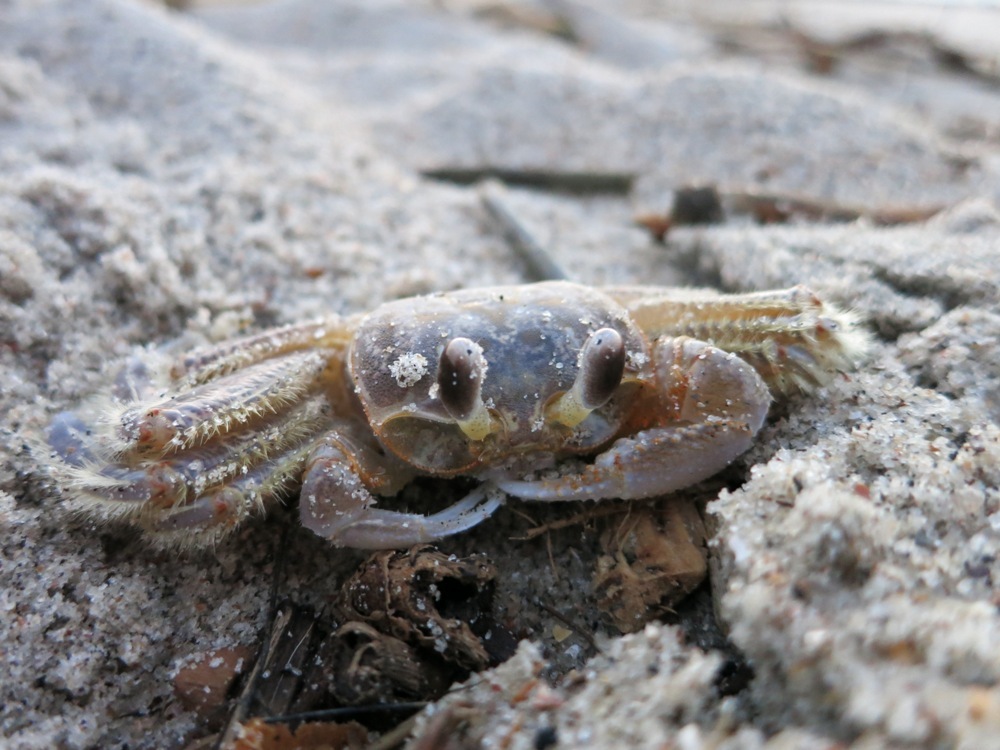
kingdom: Animalia
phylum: Arthropoda
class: Malacostraca
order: Decapoda
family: Ocypodidae
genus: Ocypode
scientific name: Ocypode quadrata
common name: Ghost crab
